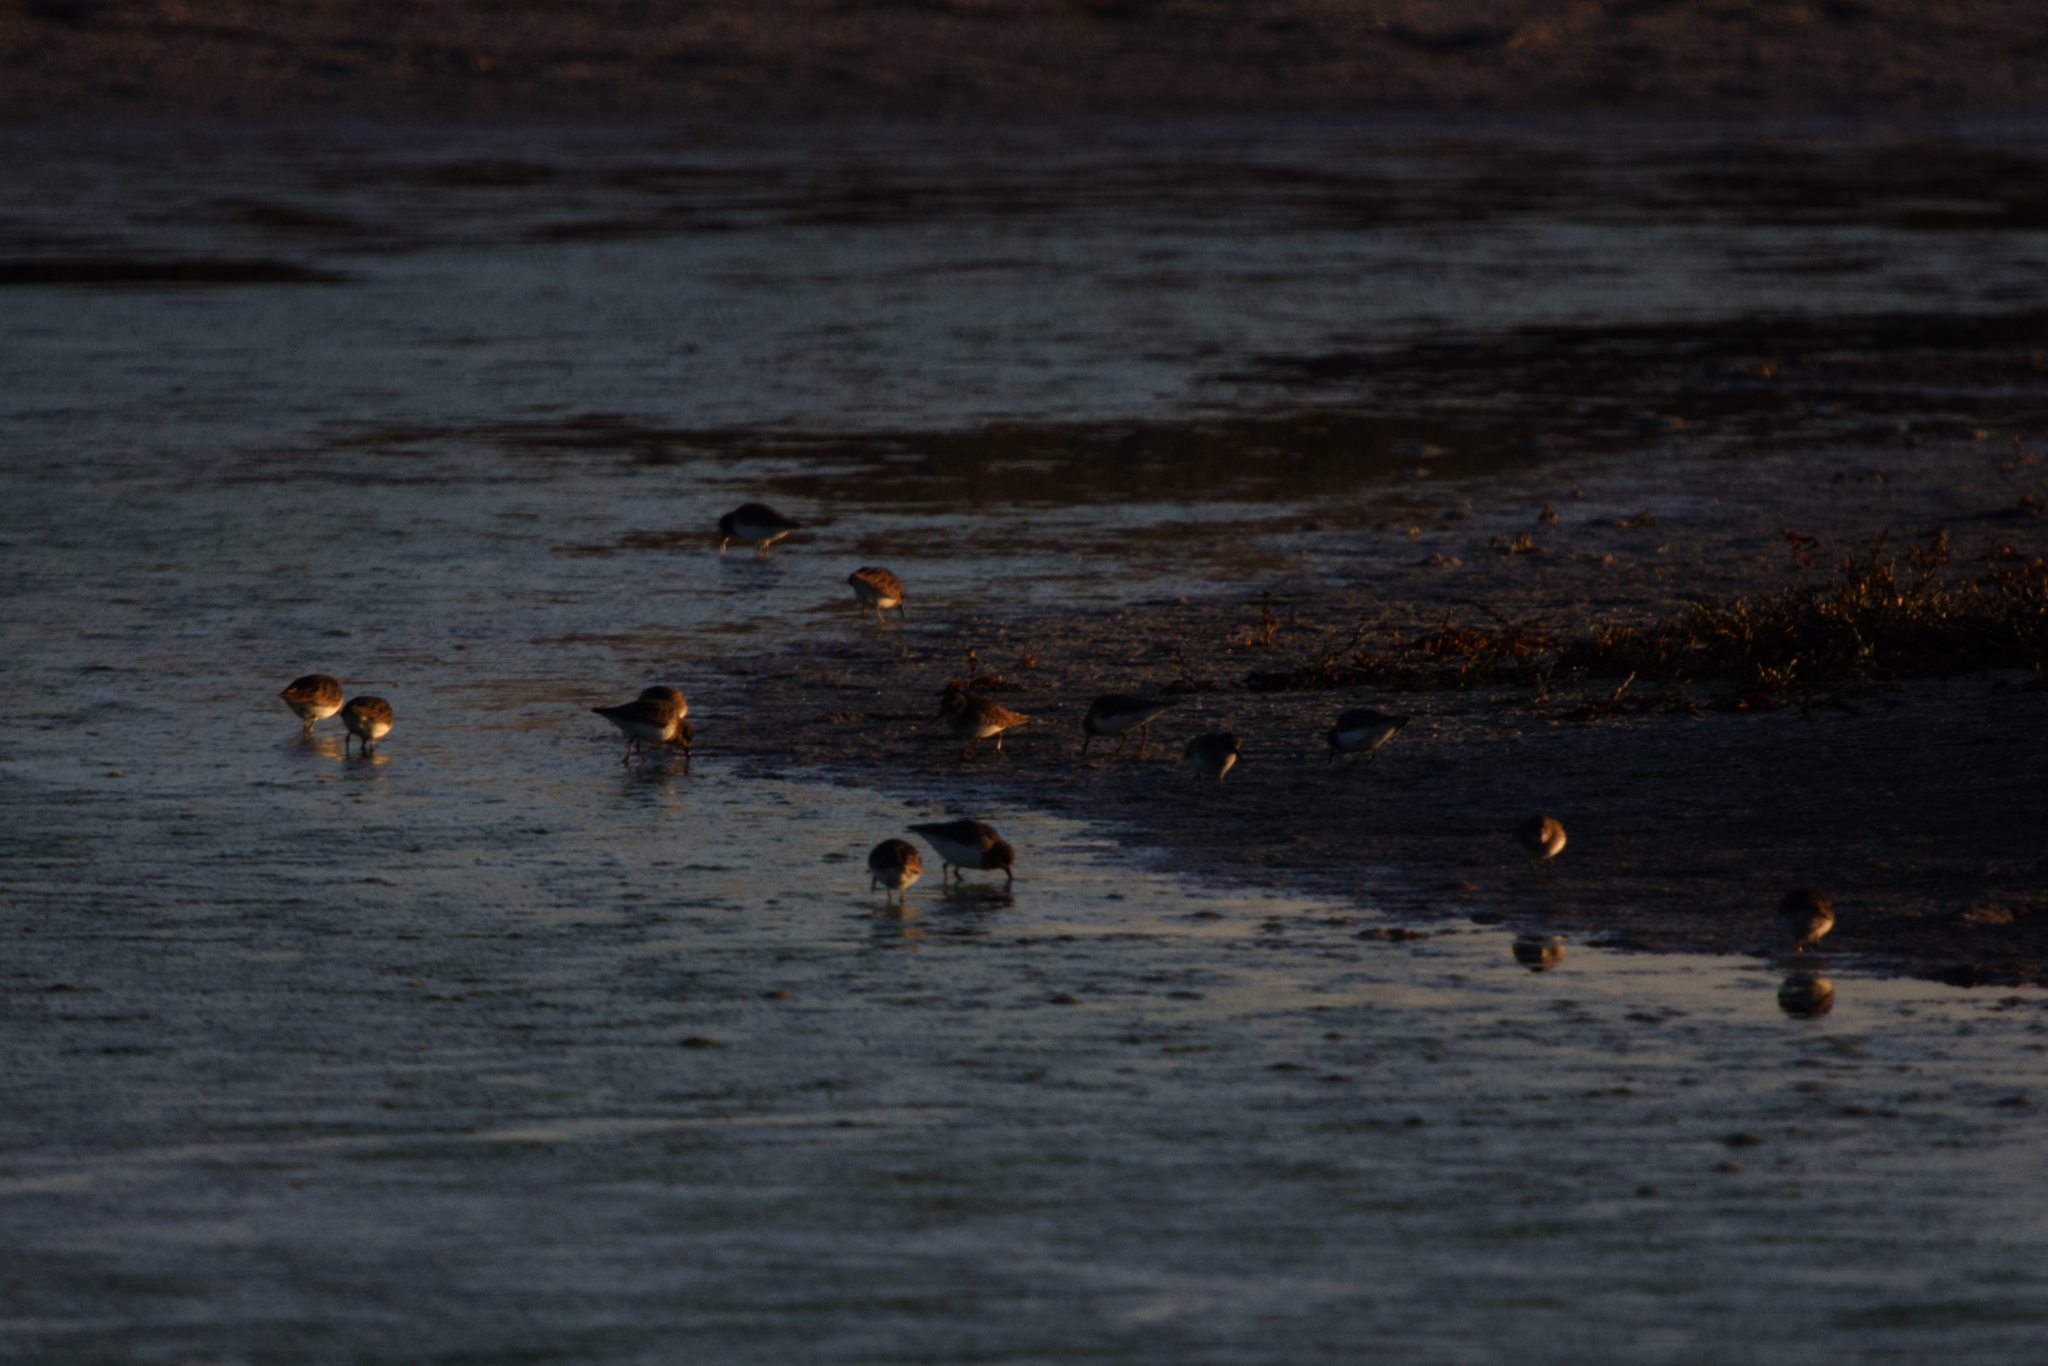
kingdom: Animalia
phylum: Chordata
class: Aves
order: Charadriiformes
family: Scolopacidae
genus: Calidris
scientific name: Calidris minutilla
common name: Least sandpiper
